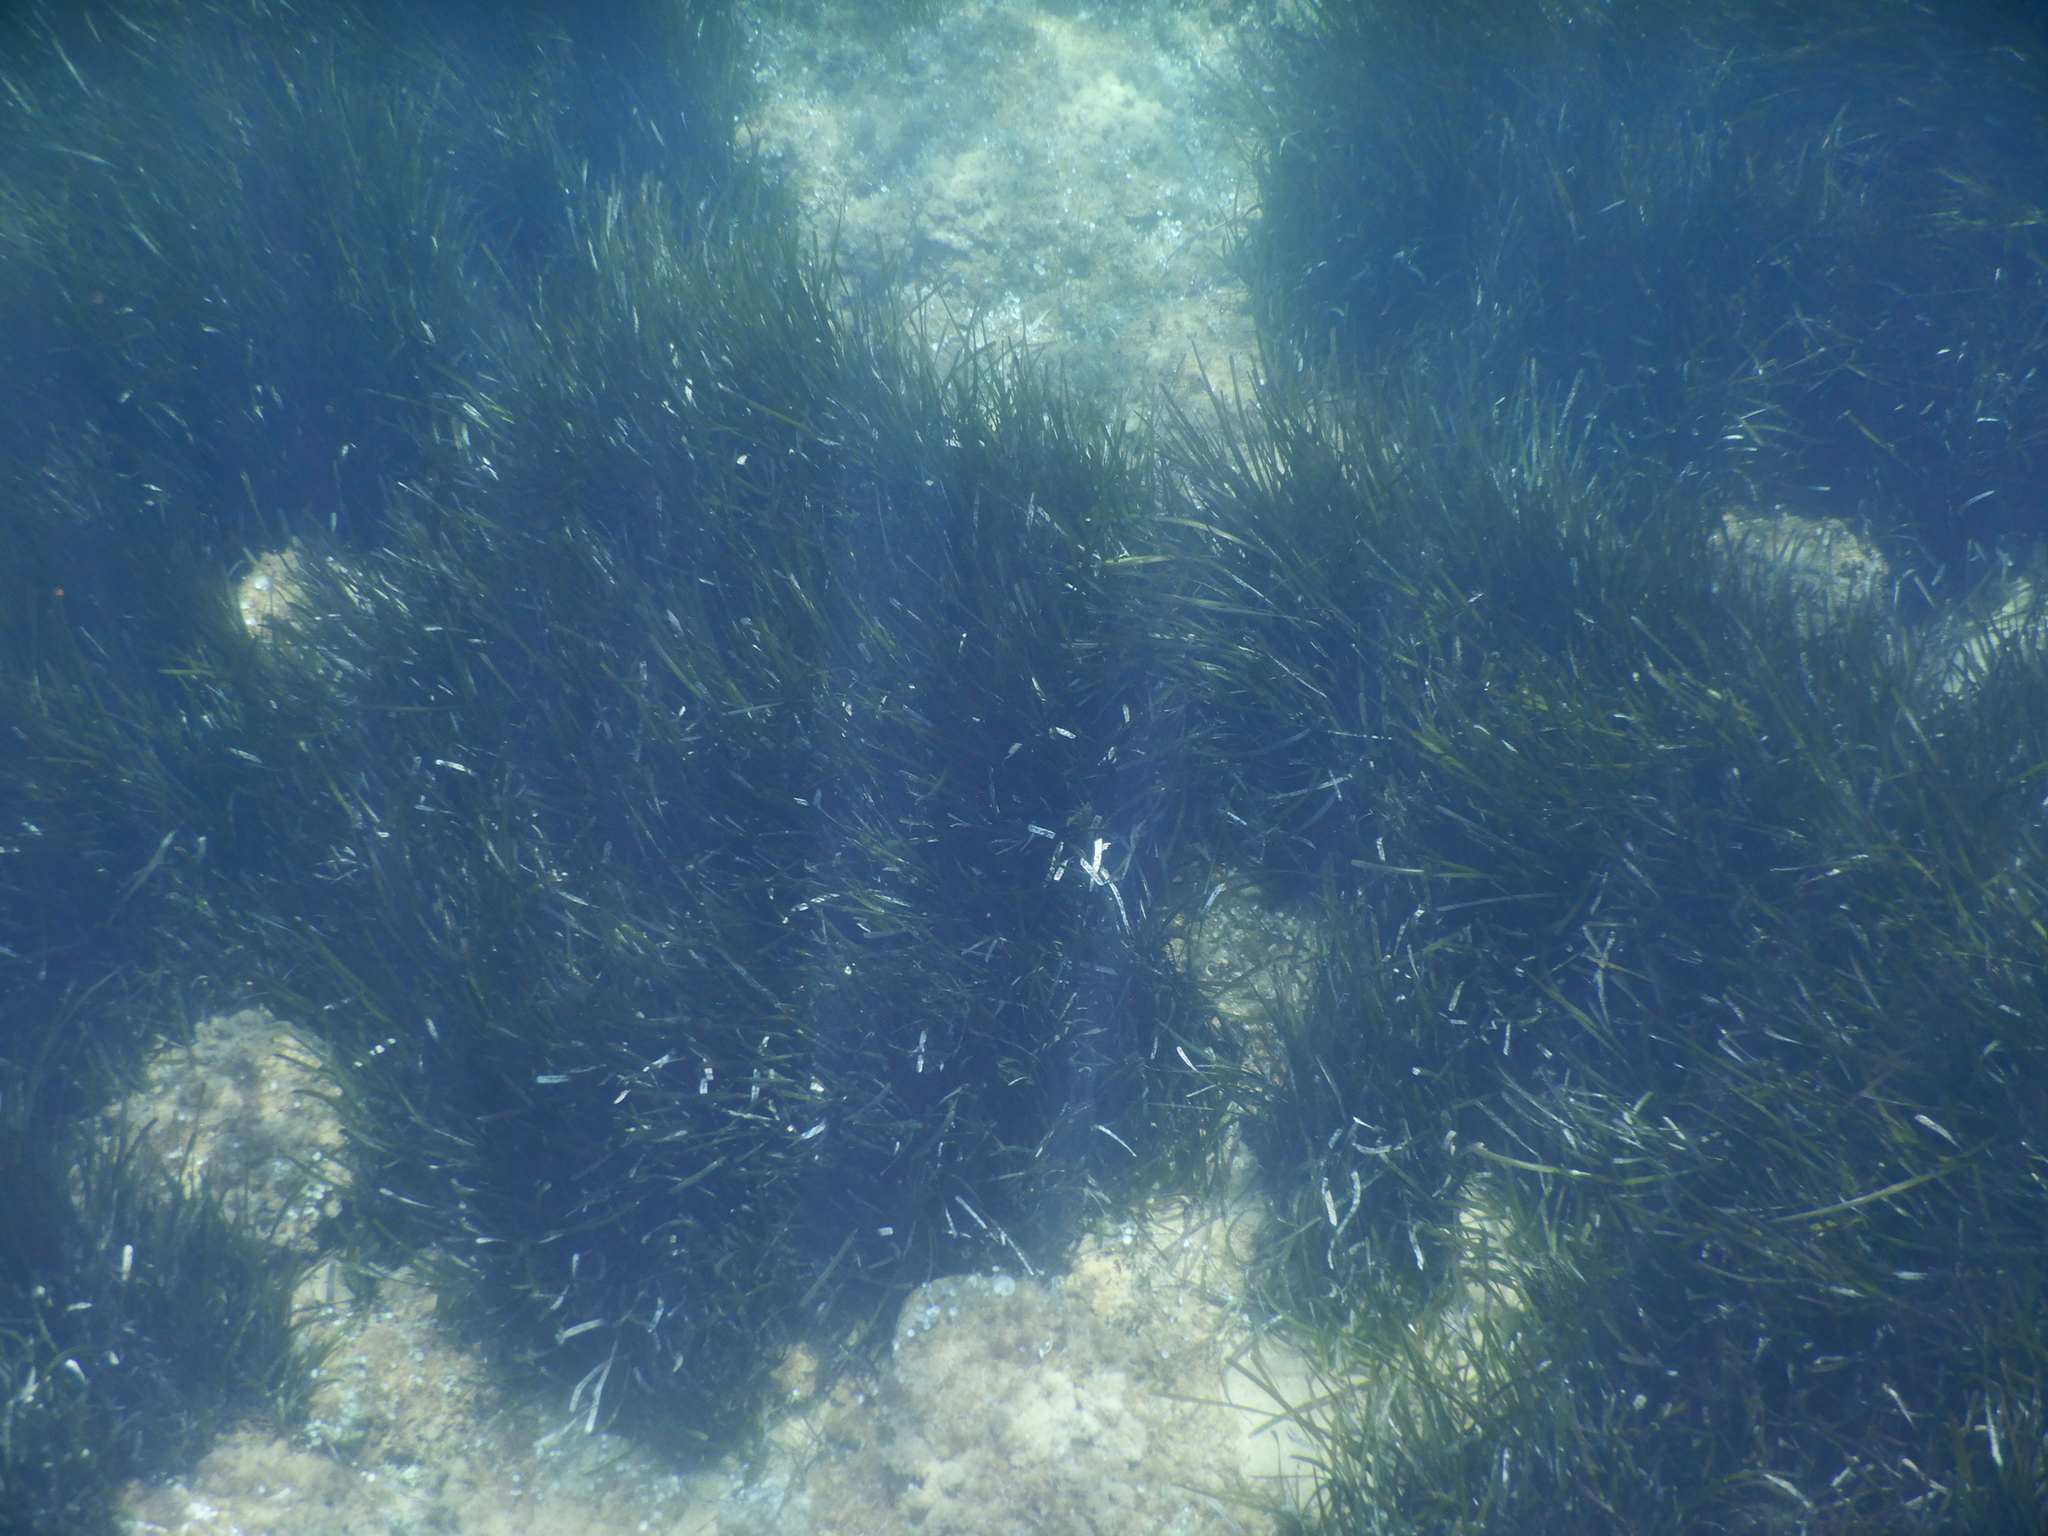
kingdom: Plantae
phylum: Tracheophyta
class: Liliopsida
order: Alismatales
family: Posidoniaceae
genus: Posidonia
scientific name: Posidonia oceanica
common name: Mediterranean tapeweed
